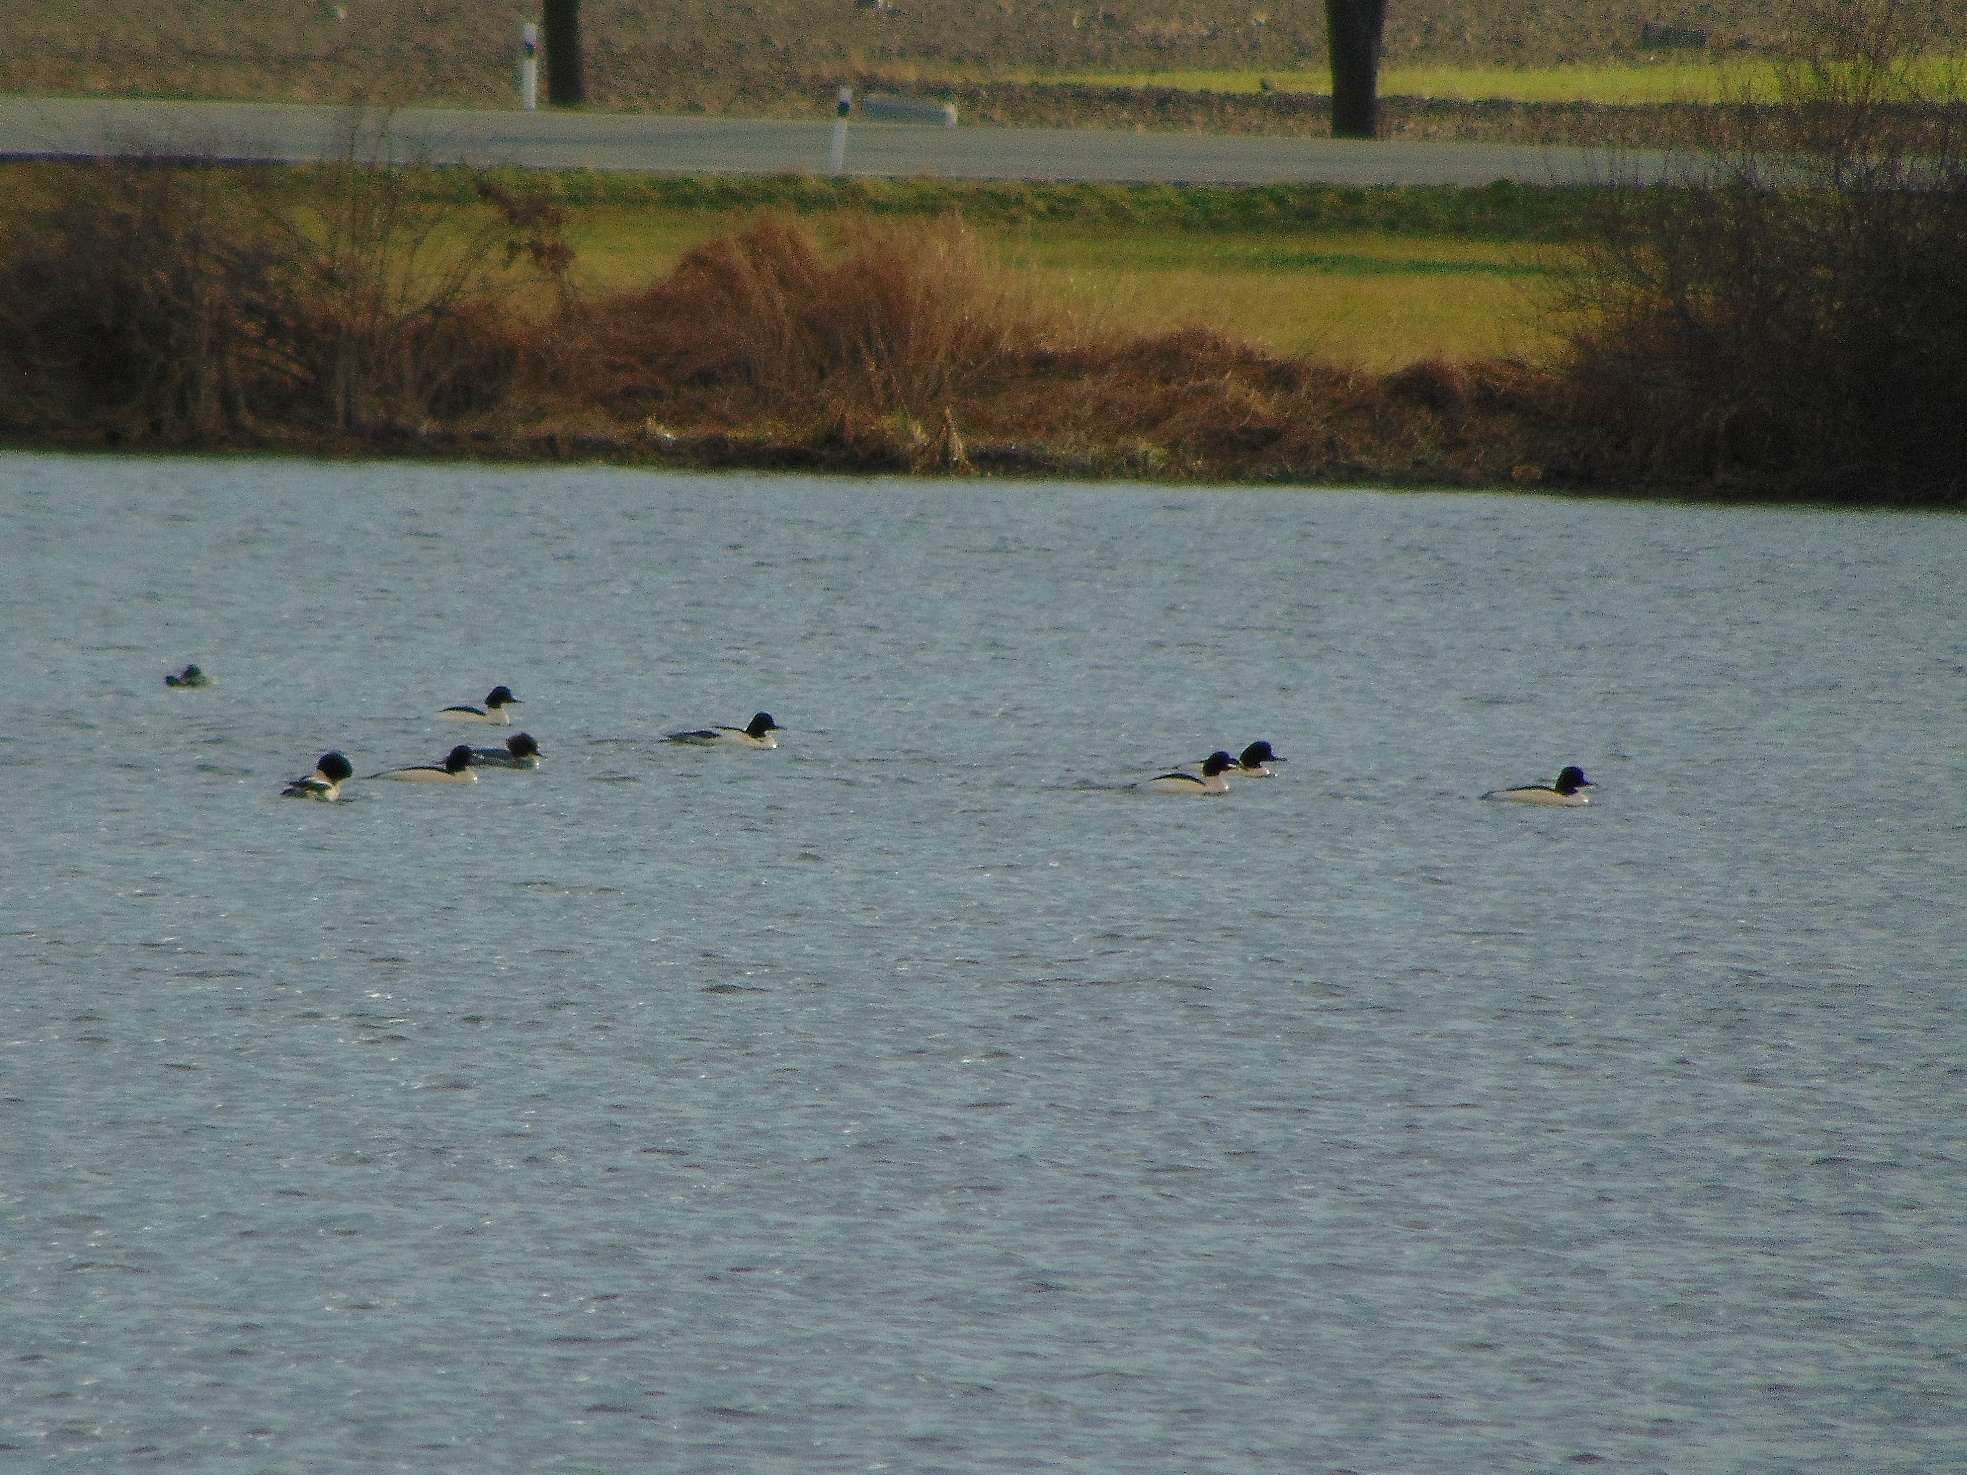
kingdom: Animalia
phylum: Chordata
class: Aves
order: Anseriformes
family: Anatidae
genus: Mergus
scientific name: Mergus merganser
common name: Common merganser
